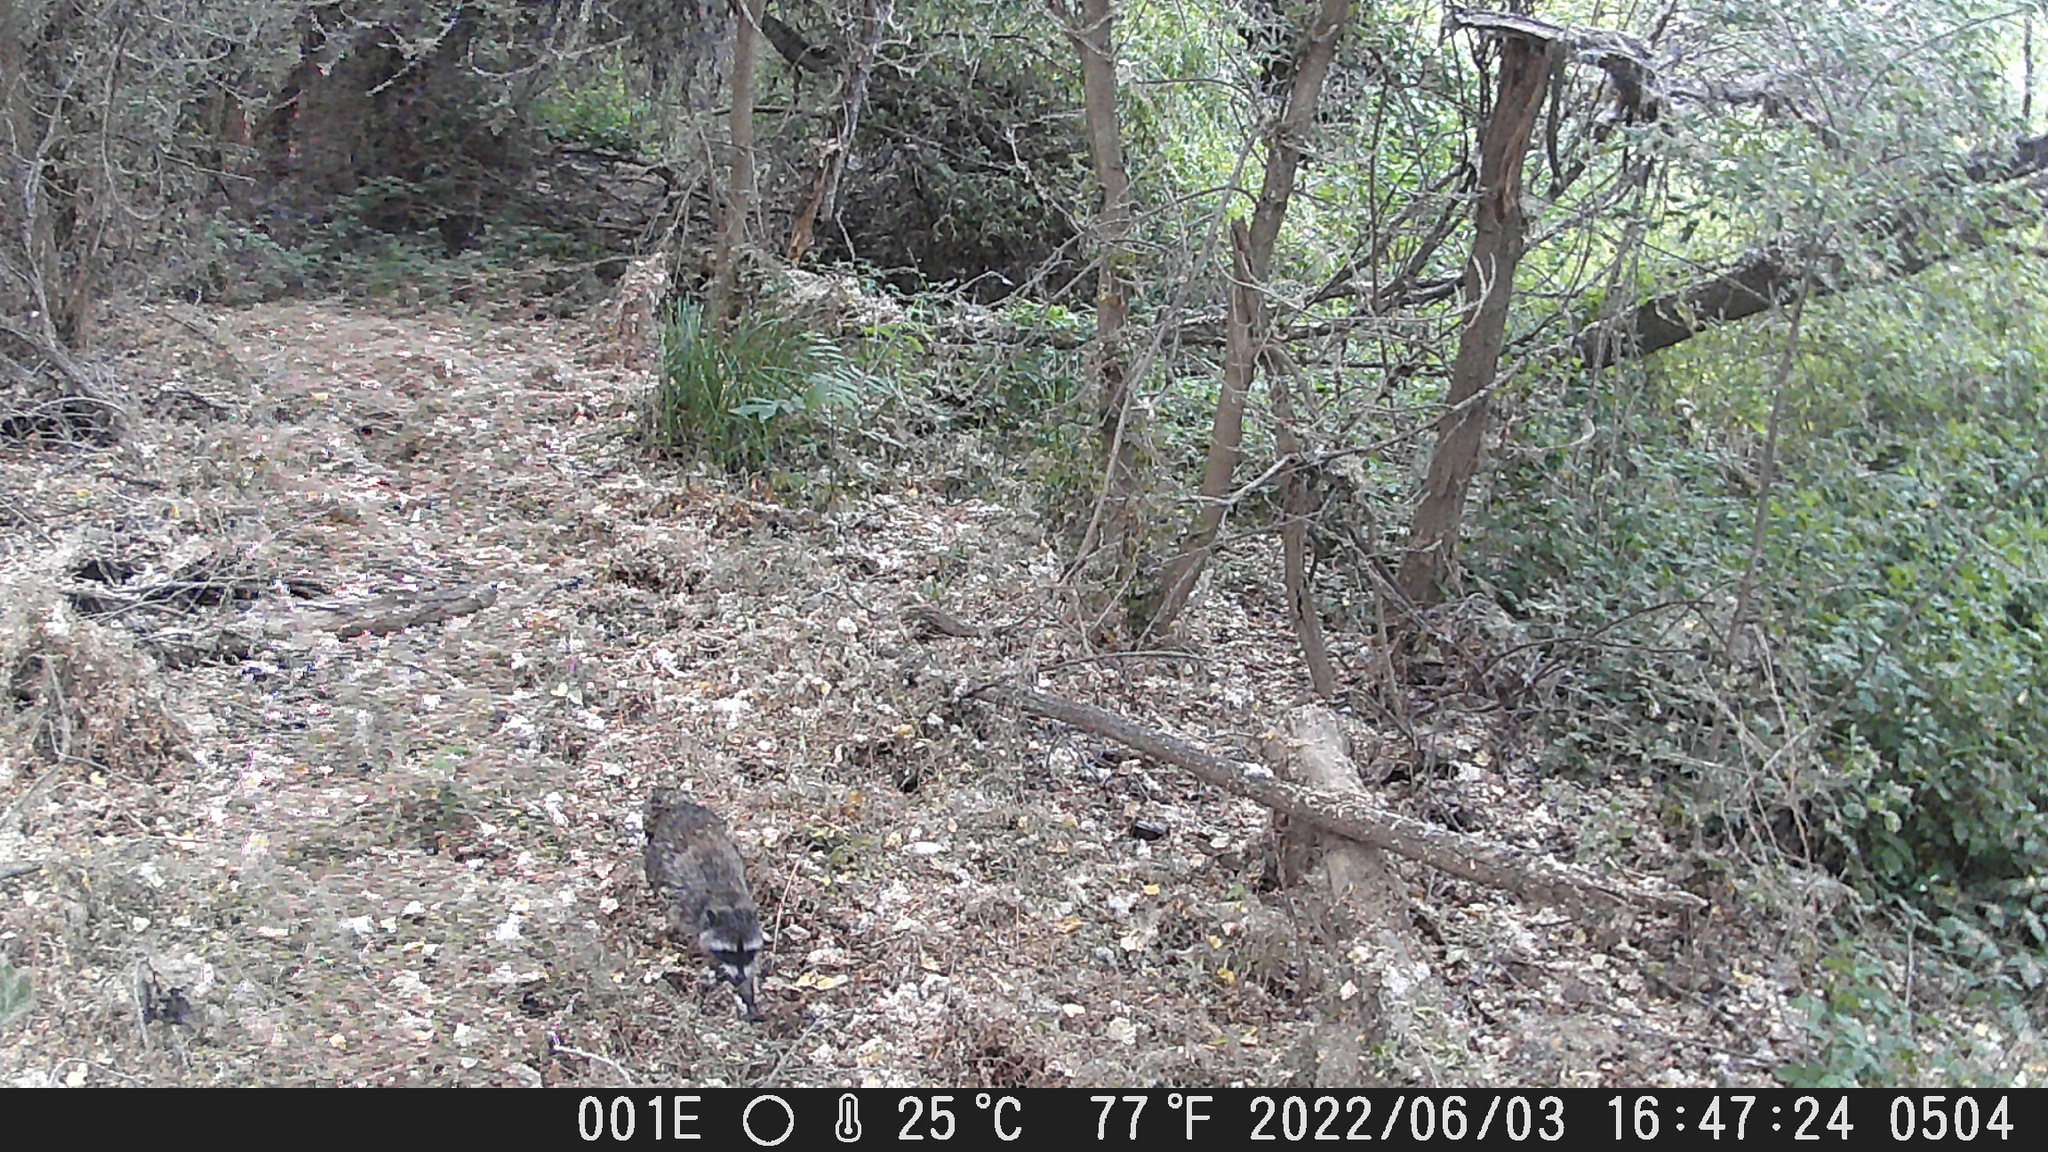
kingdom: Animalia
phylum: Chordata
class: Mammalia
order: Carnivora
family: Procyonidae
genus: Procyon
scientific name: Procyon lotor
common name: Raccoon
